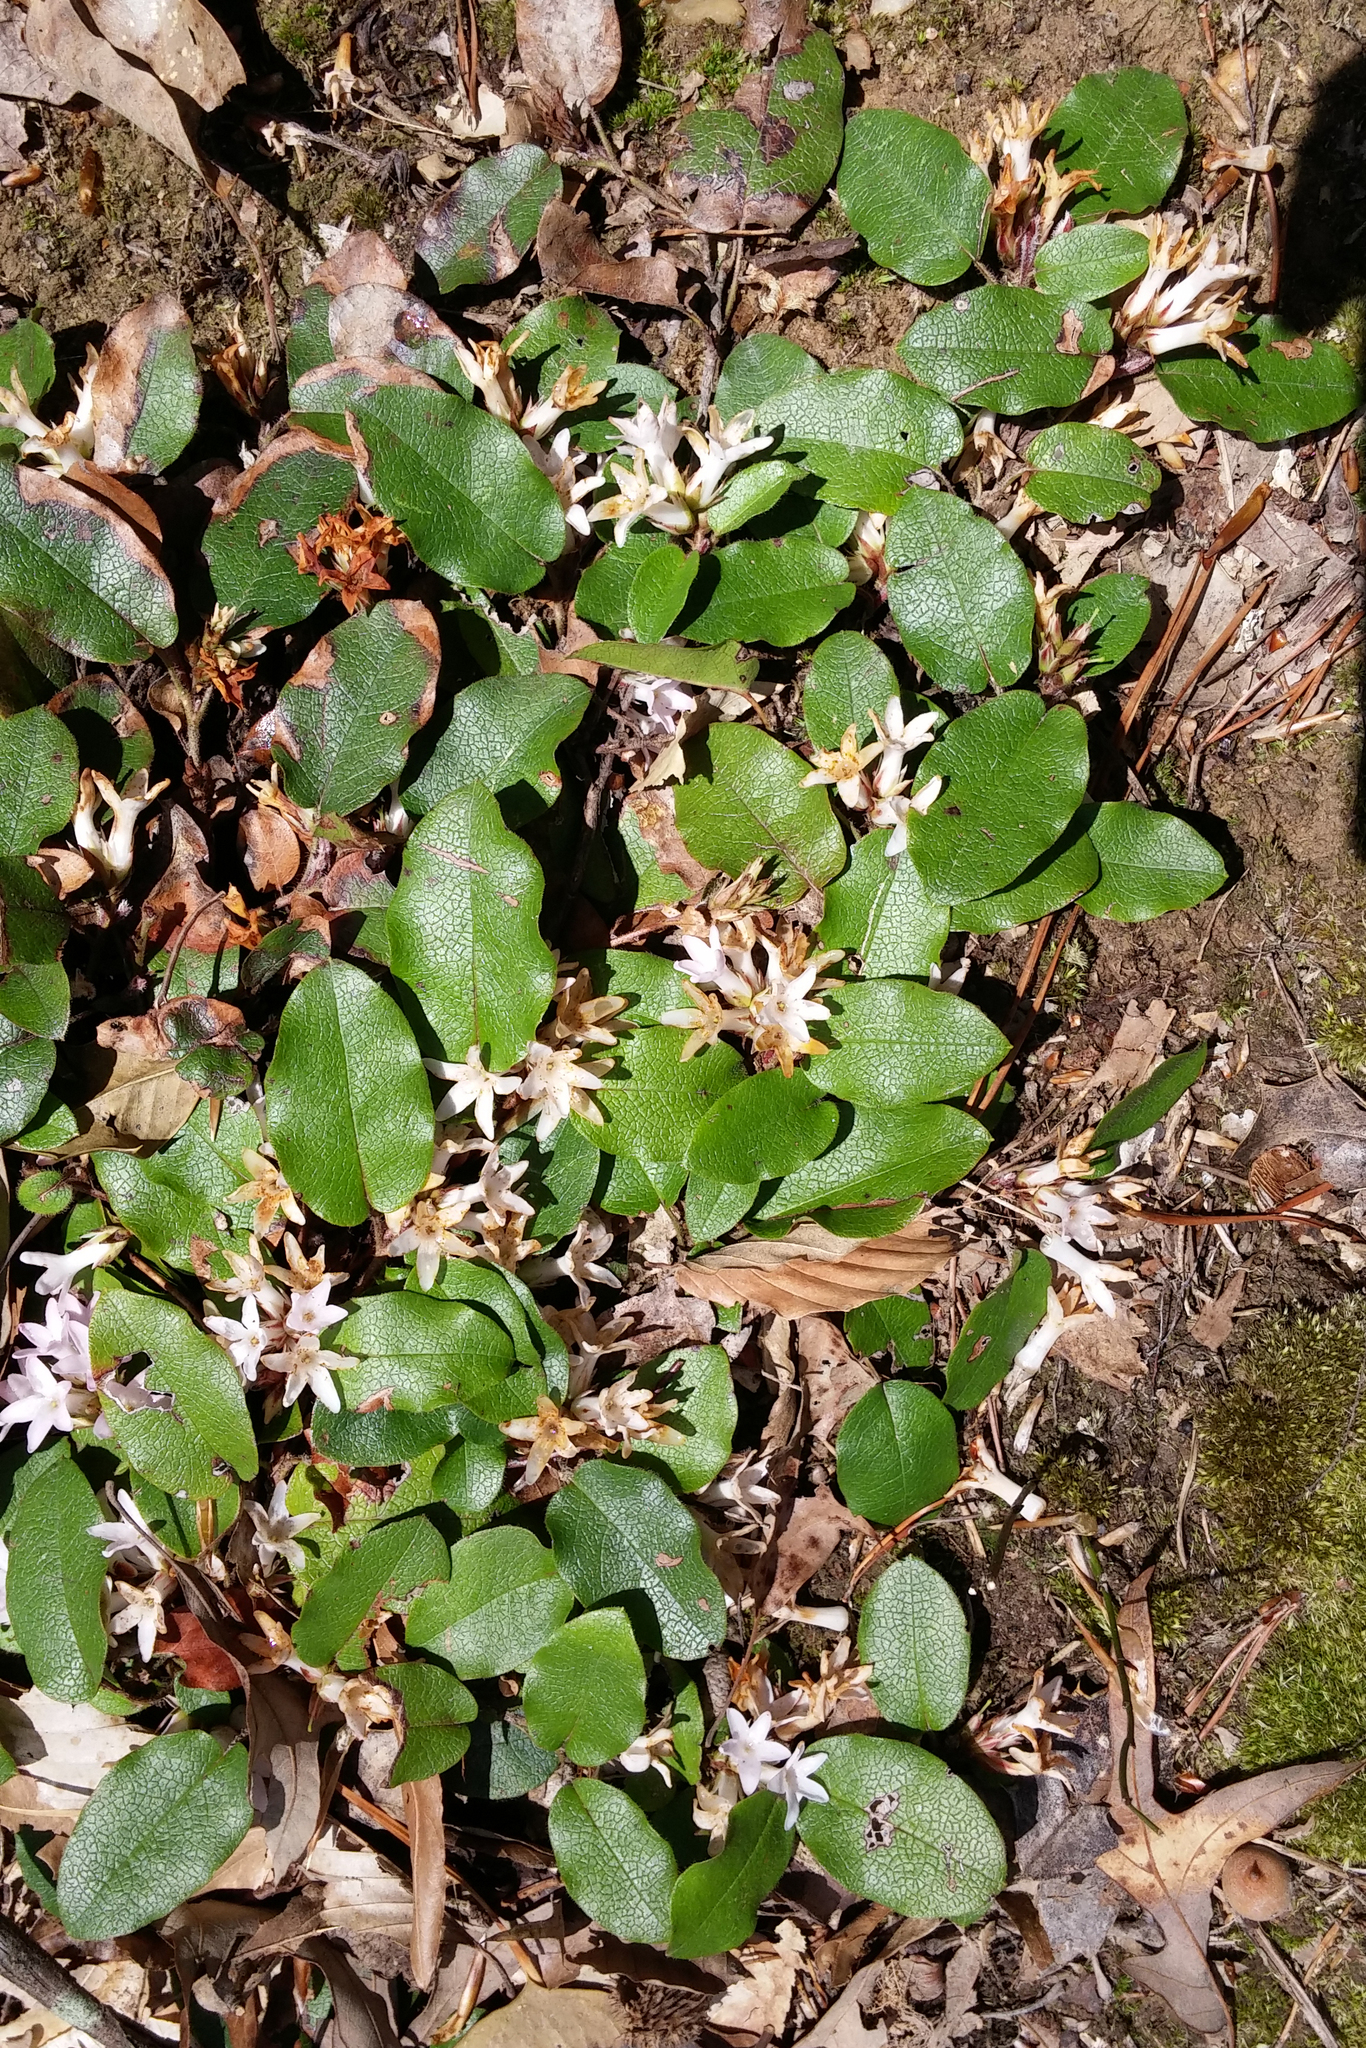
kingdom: Plantae
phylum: Tracheophyta
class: Magnoliopsida
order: Ericales
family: Ericaceae
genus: Epigaea
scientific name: Epigaea repens
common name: Gravelroot
